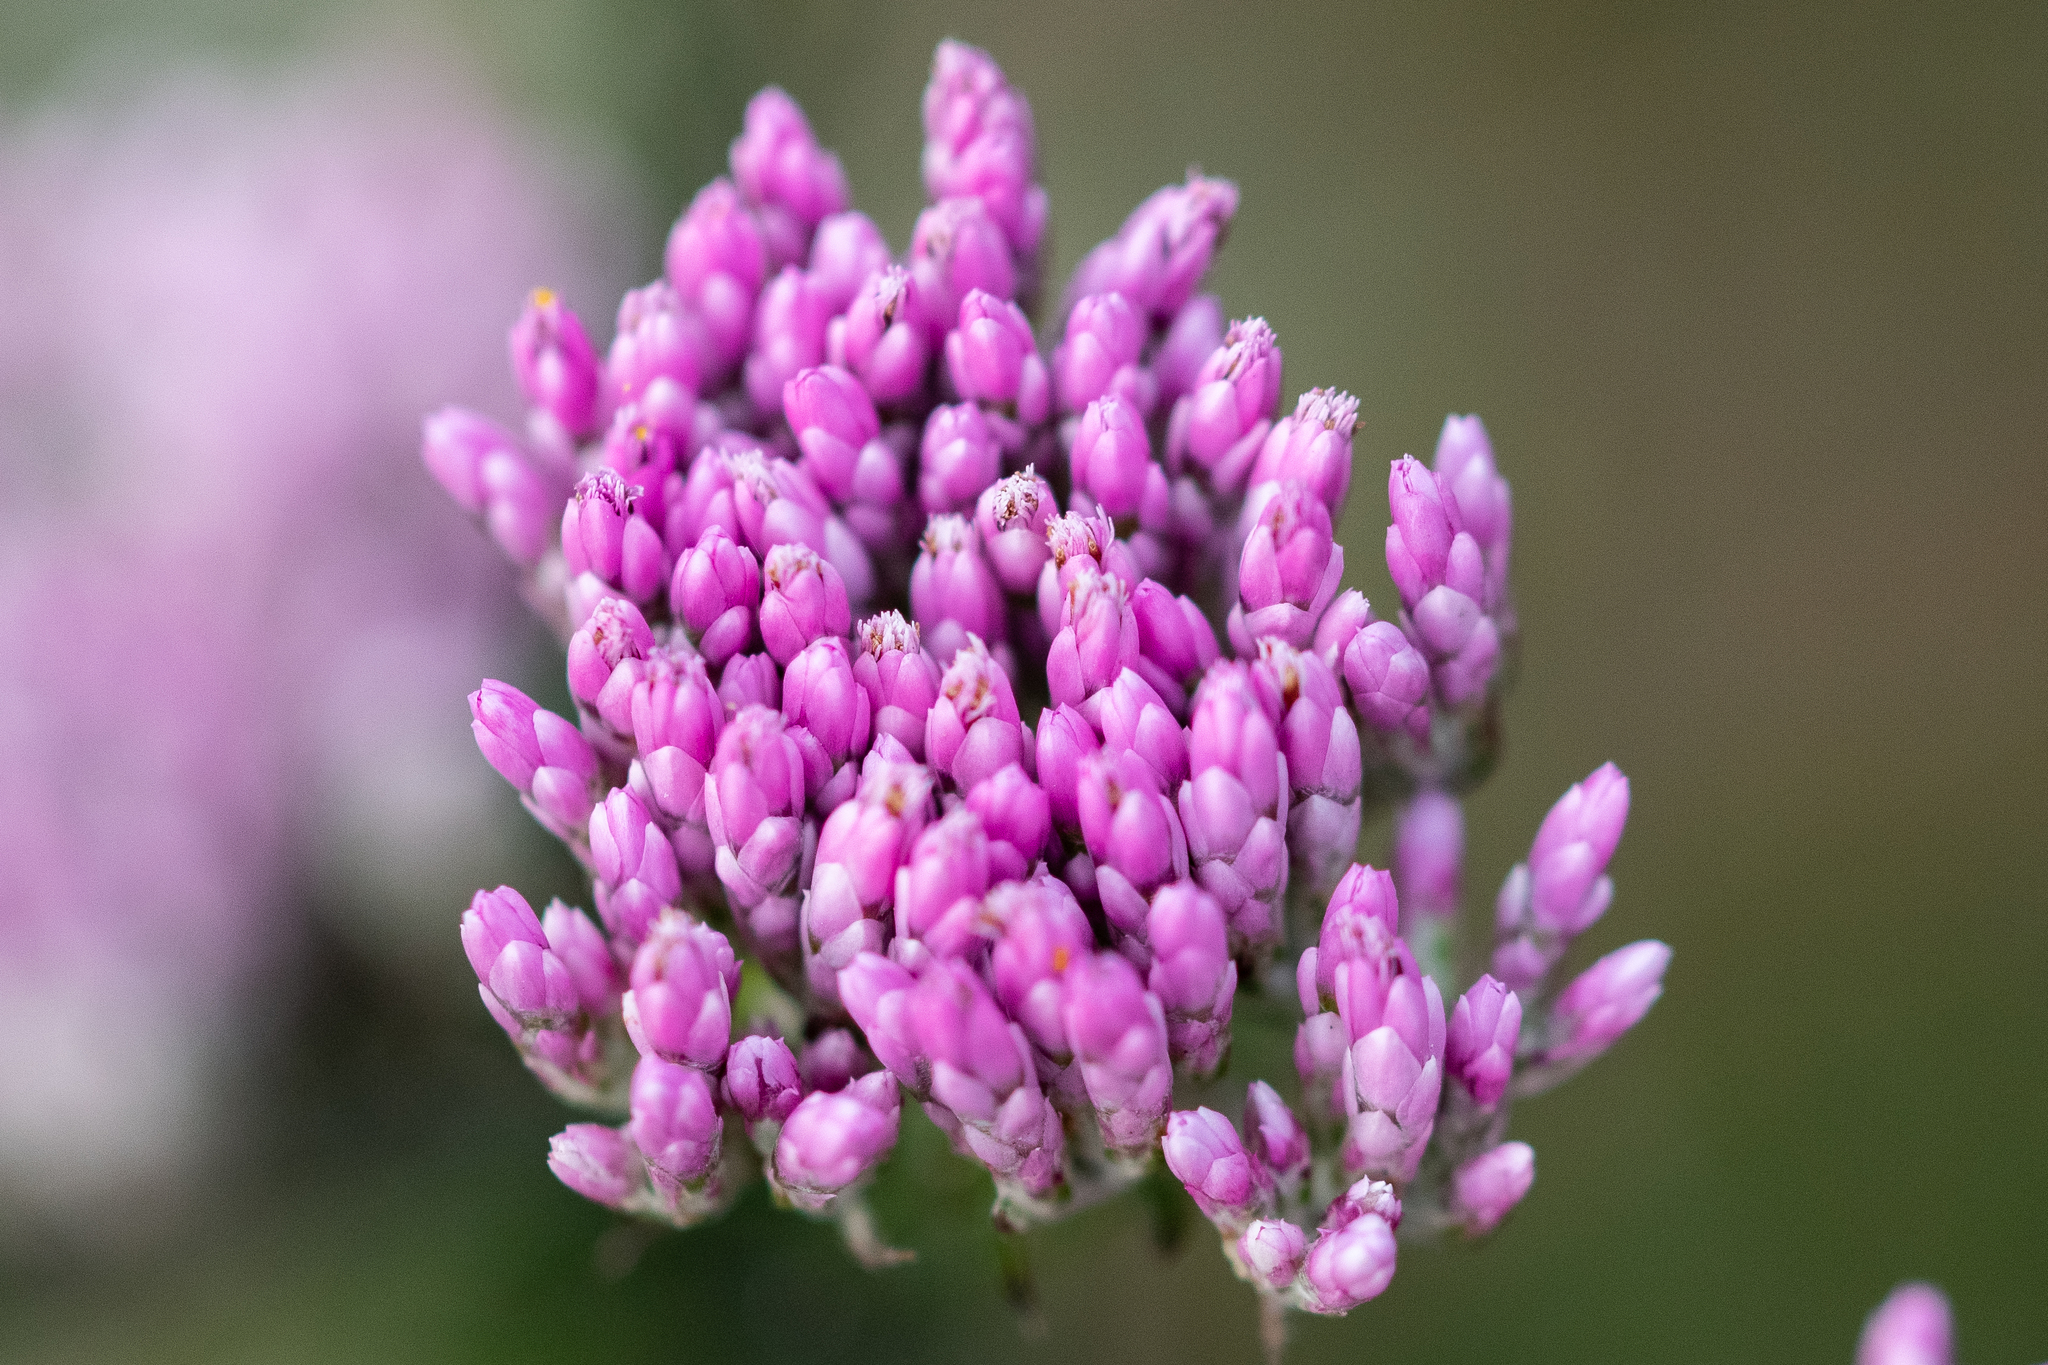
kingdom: Plantae
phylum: Tracheophyta
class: Magnoliopsida
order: Asterales
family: Asteraceae
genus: Metalasia
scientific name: Metalasia erubescens
